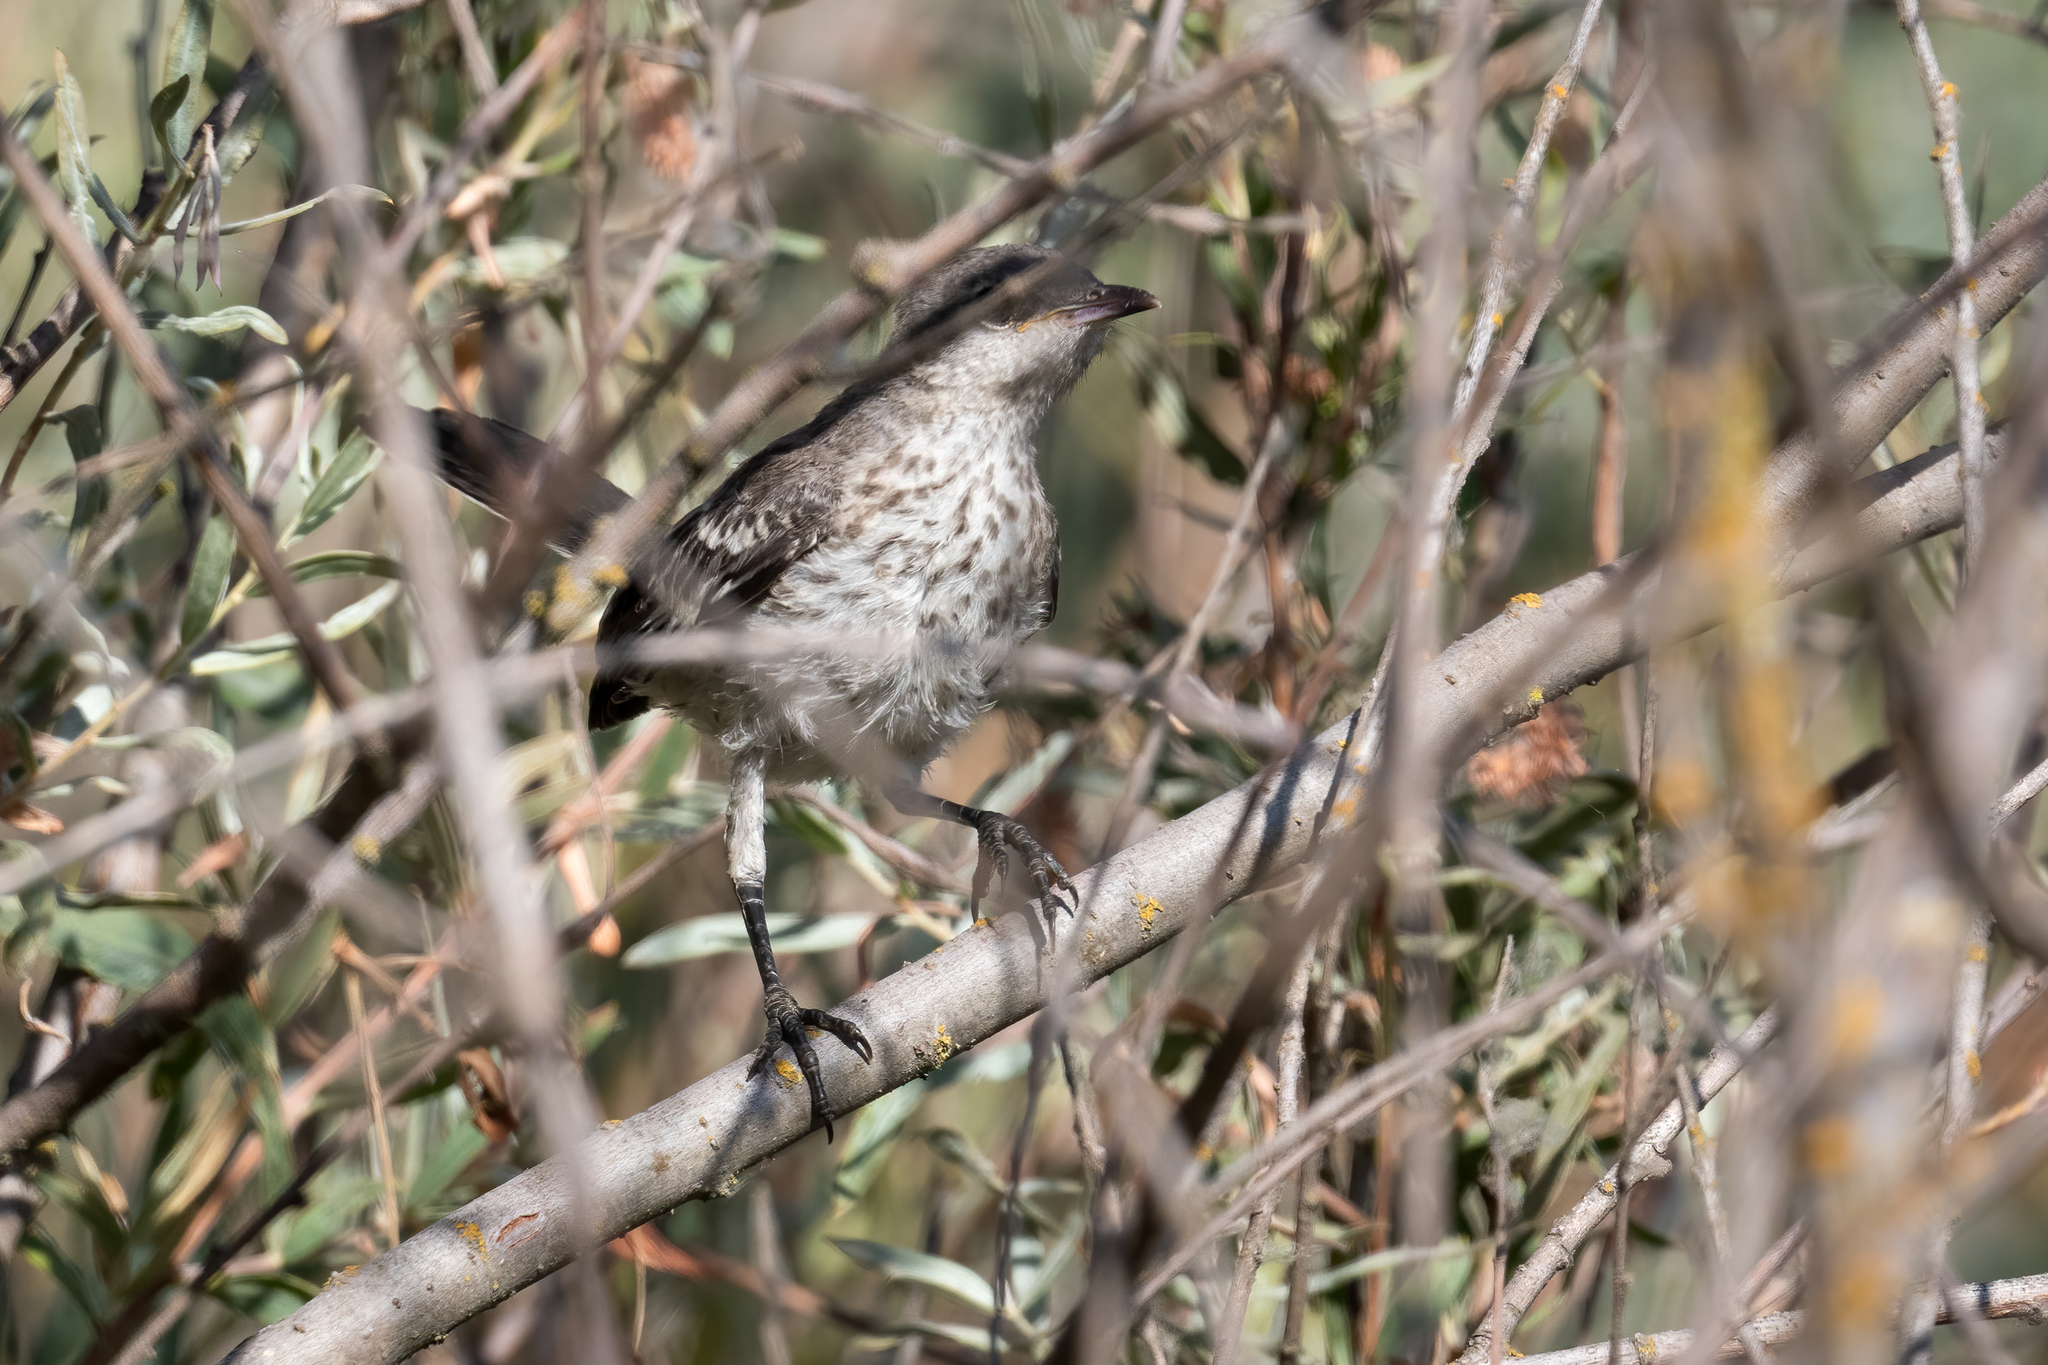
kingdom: Animalia
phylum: Chordata
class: Aves
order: Passeriformes
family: Mimidae
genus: Mimus
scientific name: Mimus polyglottos
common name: Northern mockingbird
